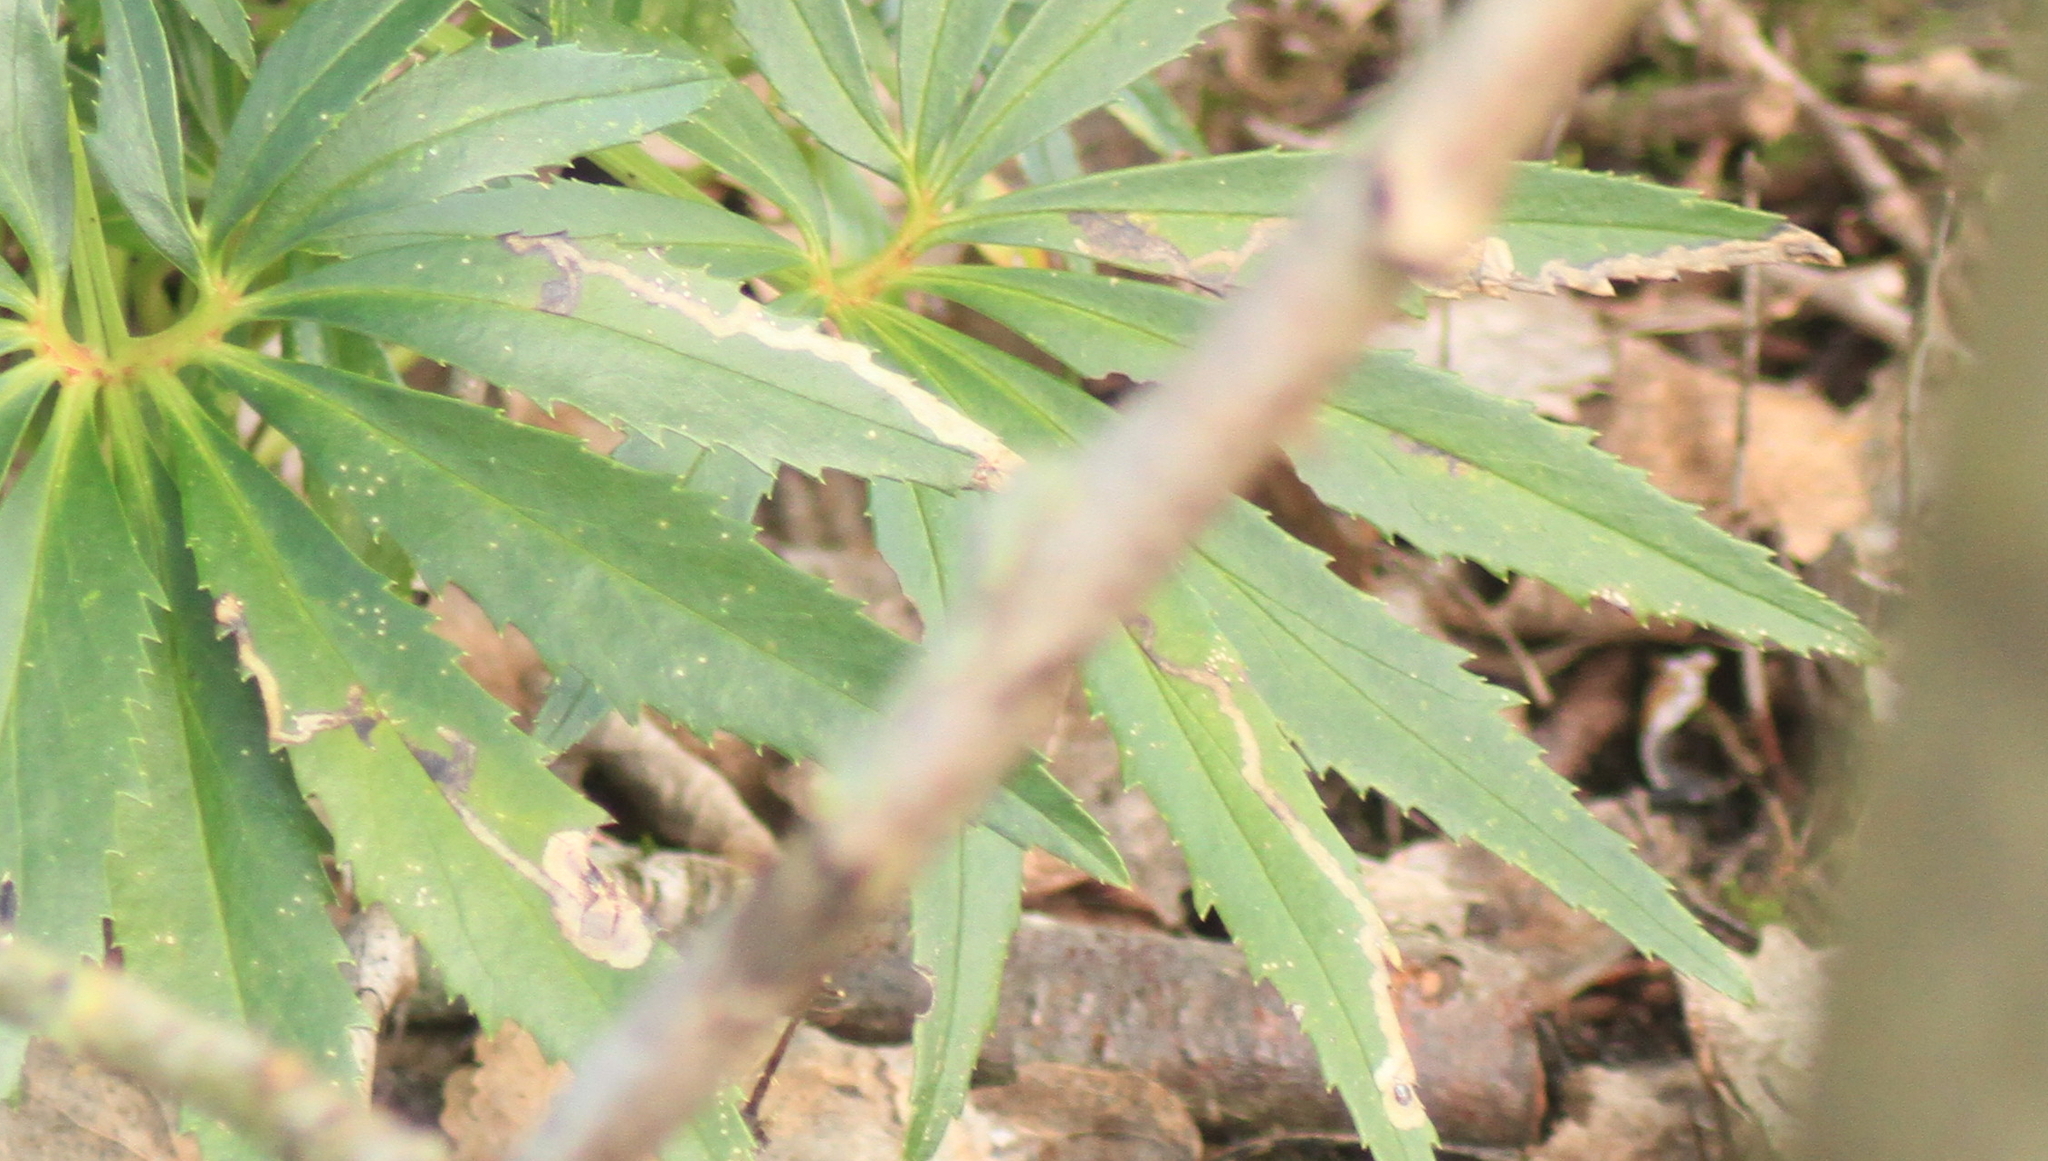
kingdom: Animalia
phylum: Arthropoda
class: Insecta
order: Diptera
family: Agromyzidae
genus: Phytomyza
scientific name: Phytomyza hellebori
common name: Fly
